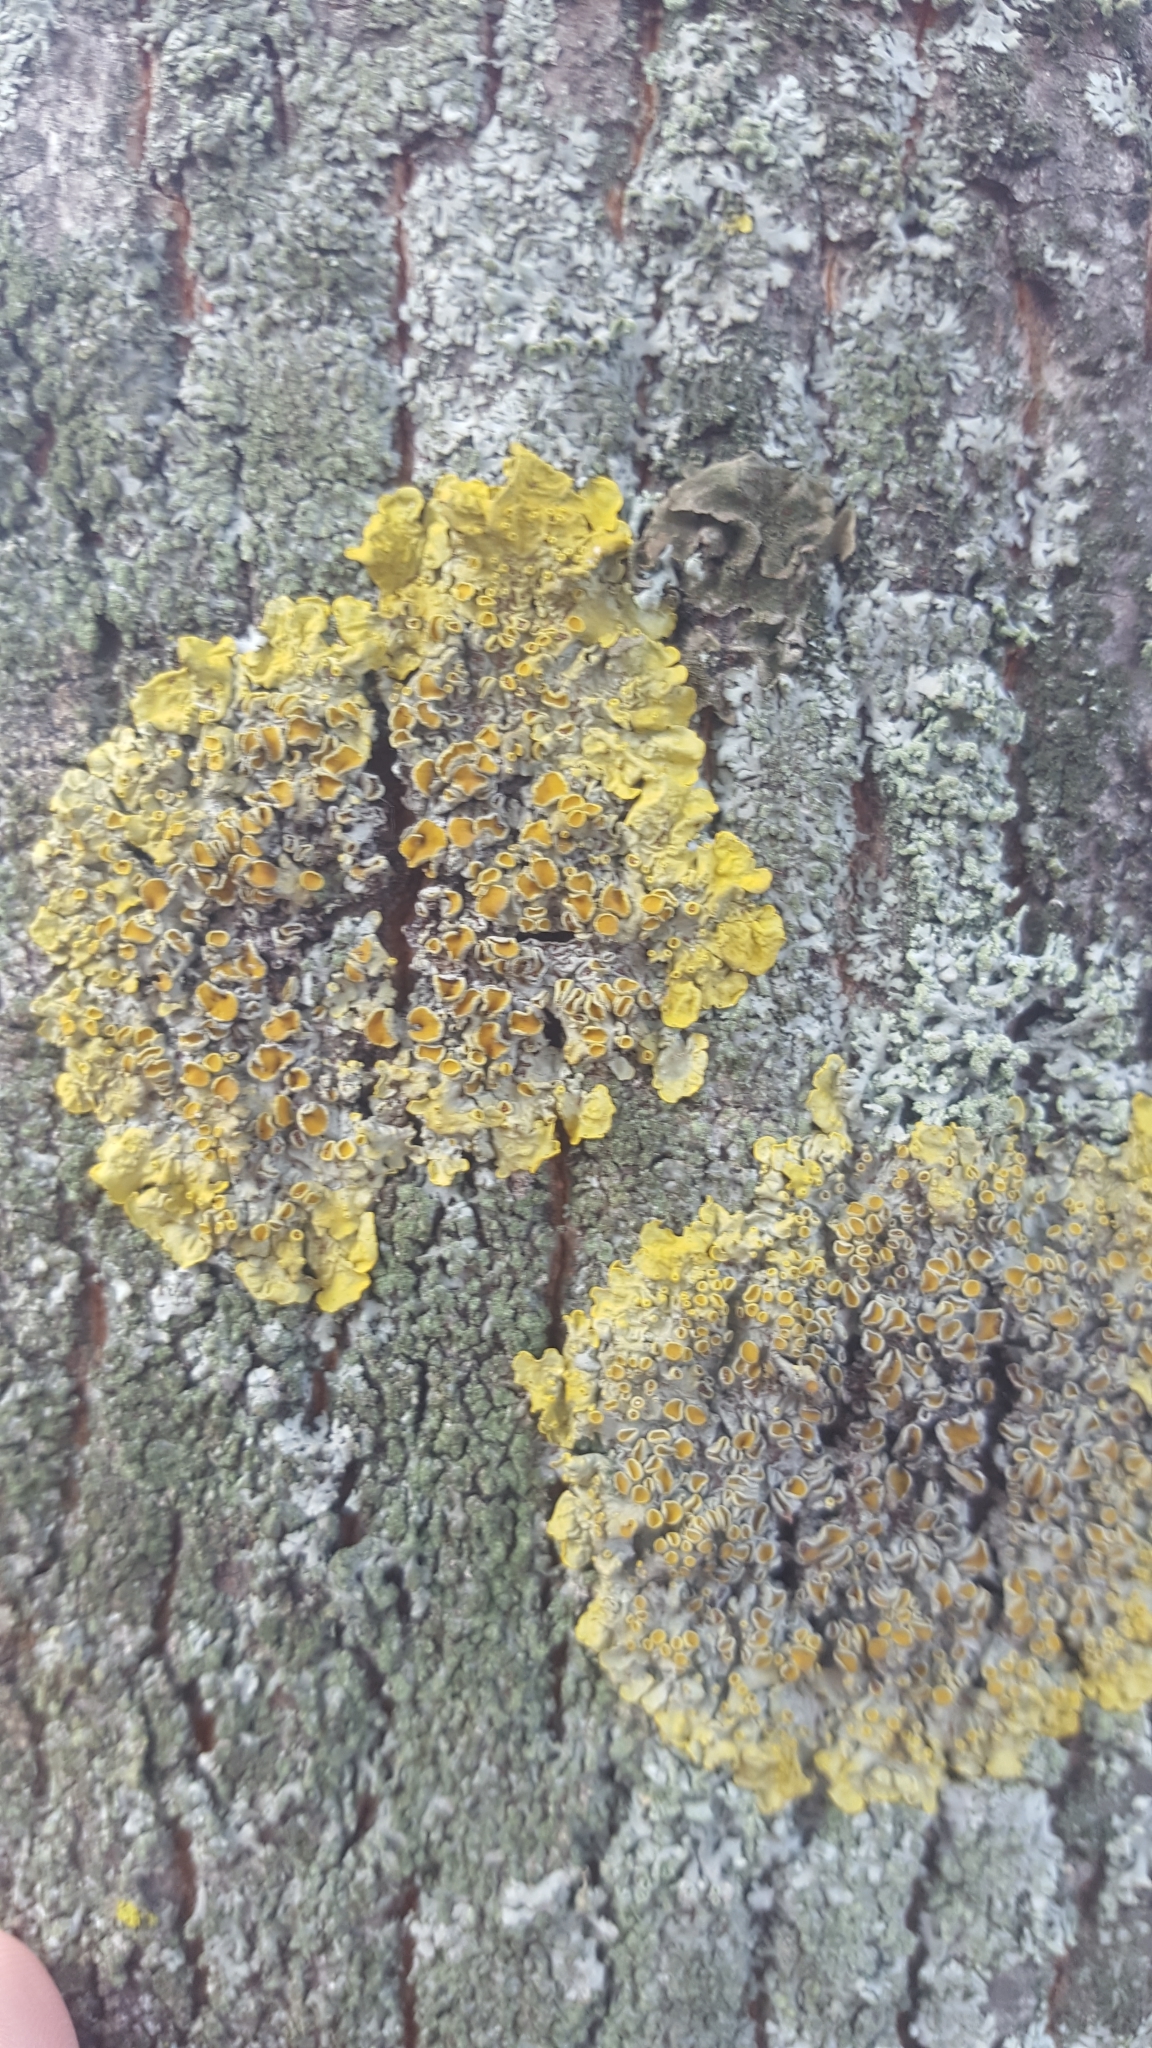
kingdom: Fungi
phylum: Ascomycota
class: Lecanoromycetes
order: Teloschistales
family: Teloschistaceae
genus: Xanthoria
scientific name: Xanthoria parietina
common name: Common orange lichen
